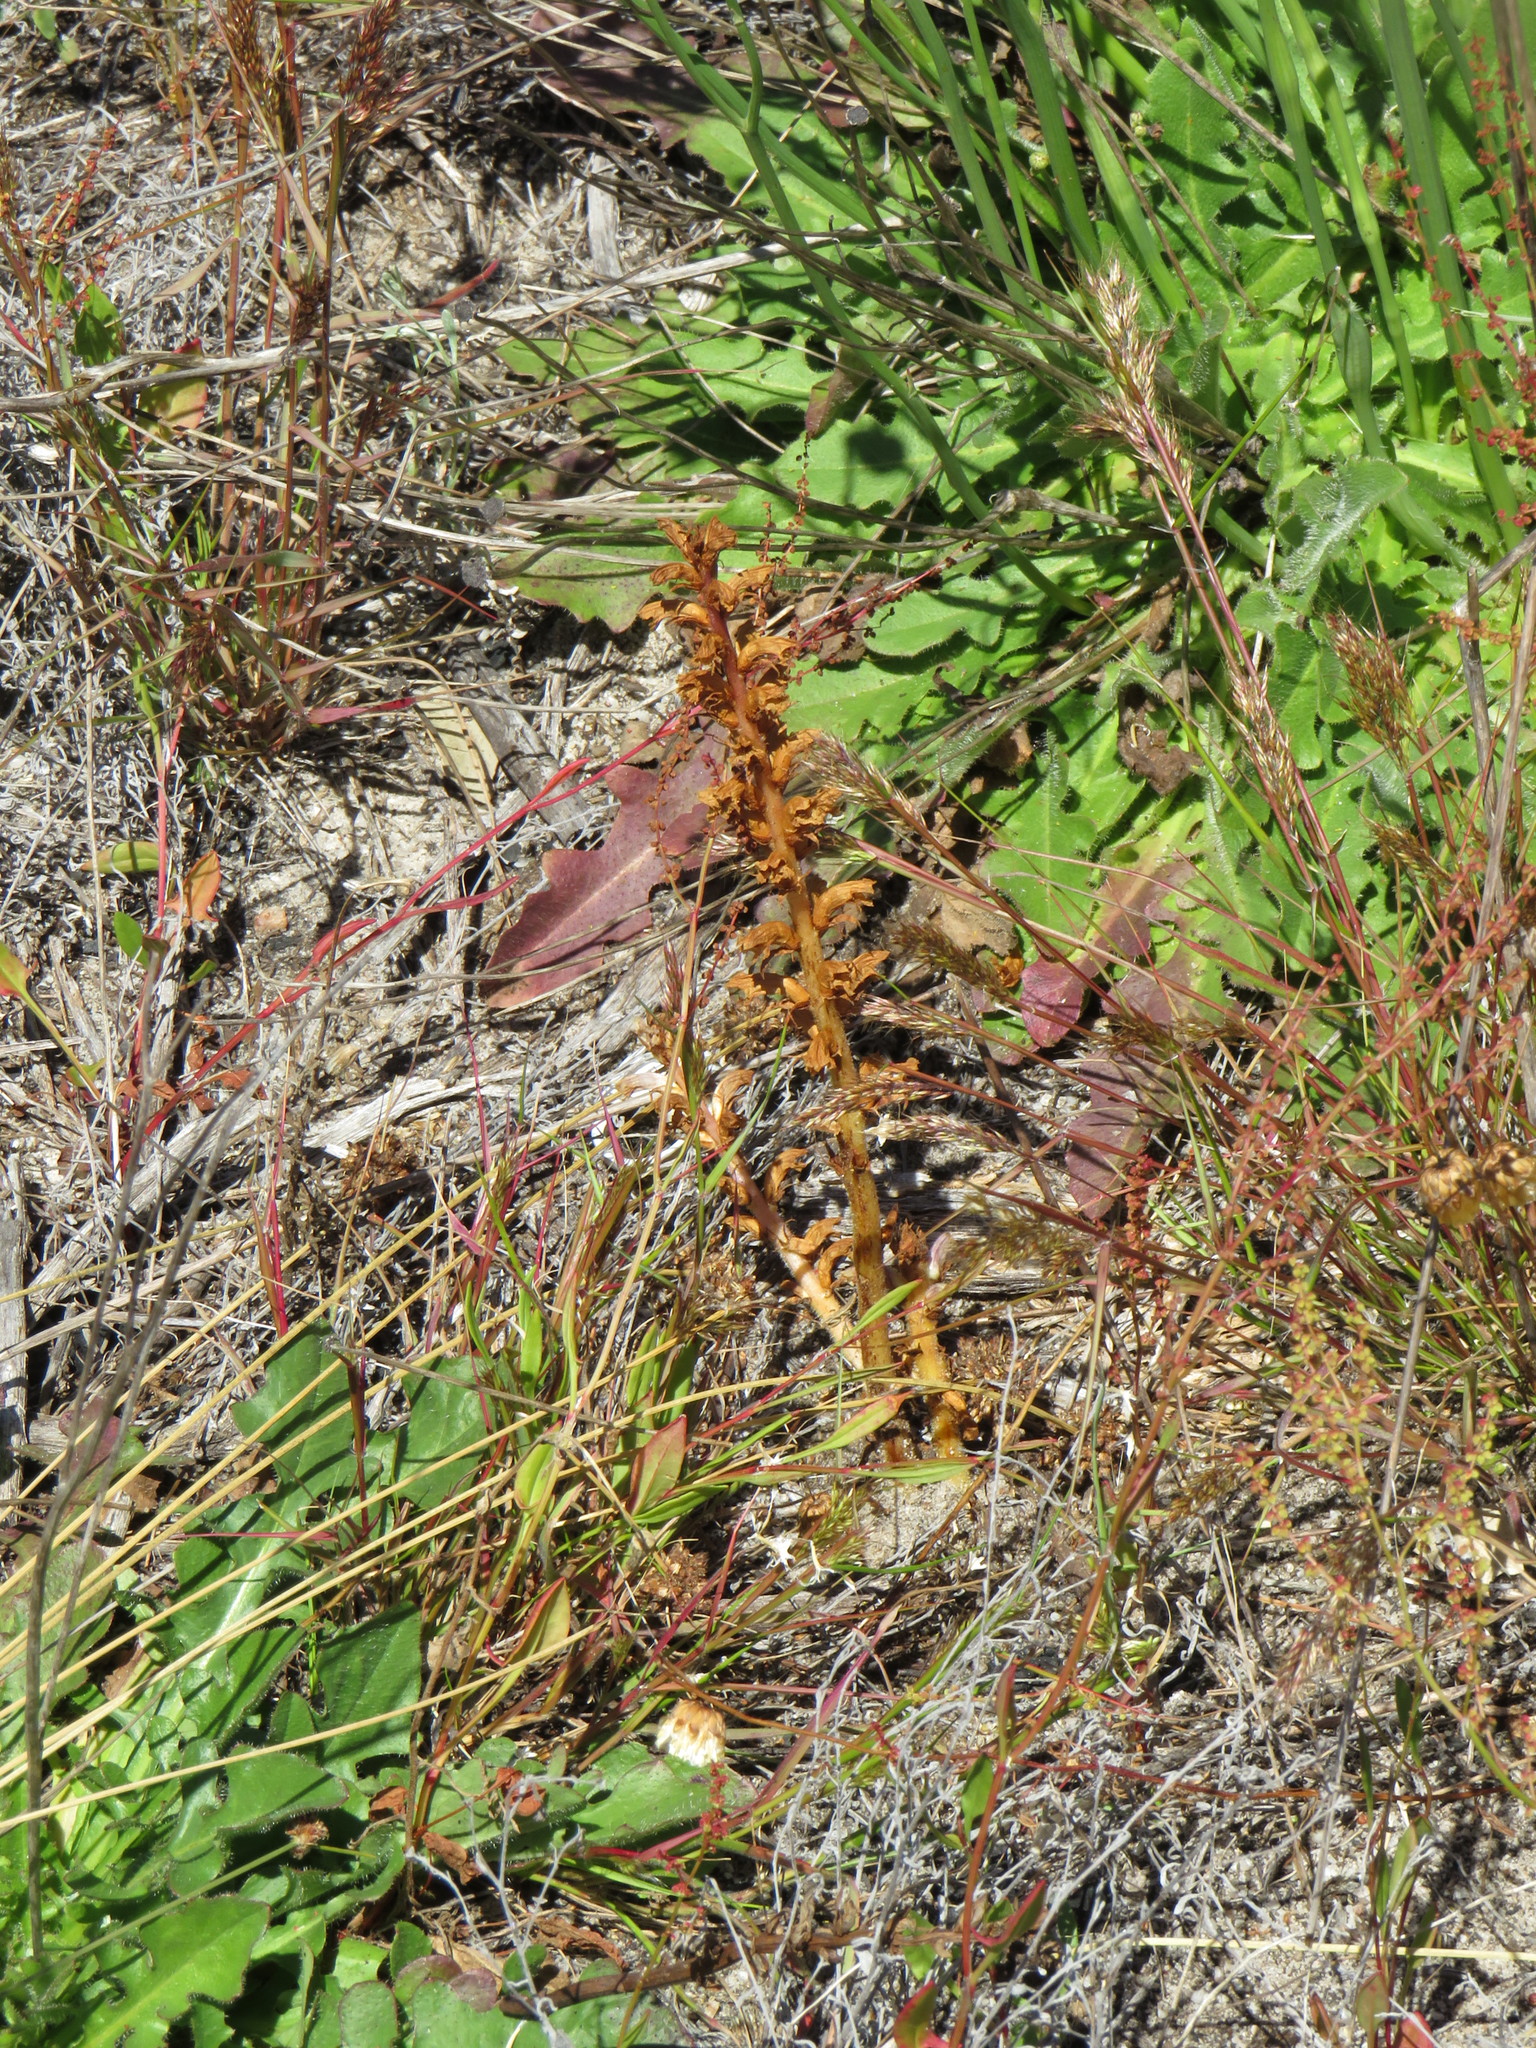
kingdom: Plantae
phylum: Tracheophyta
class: Magnoliopsida
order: Lamiales
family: Orobanchaceae
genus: Orobanche
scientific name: Orobanche minor
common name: Common broomrape
